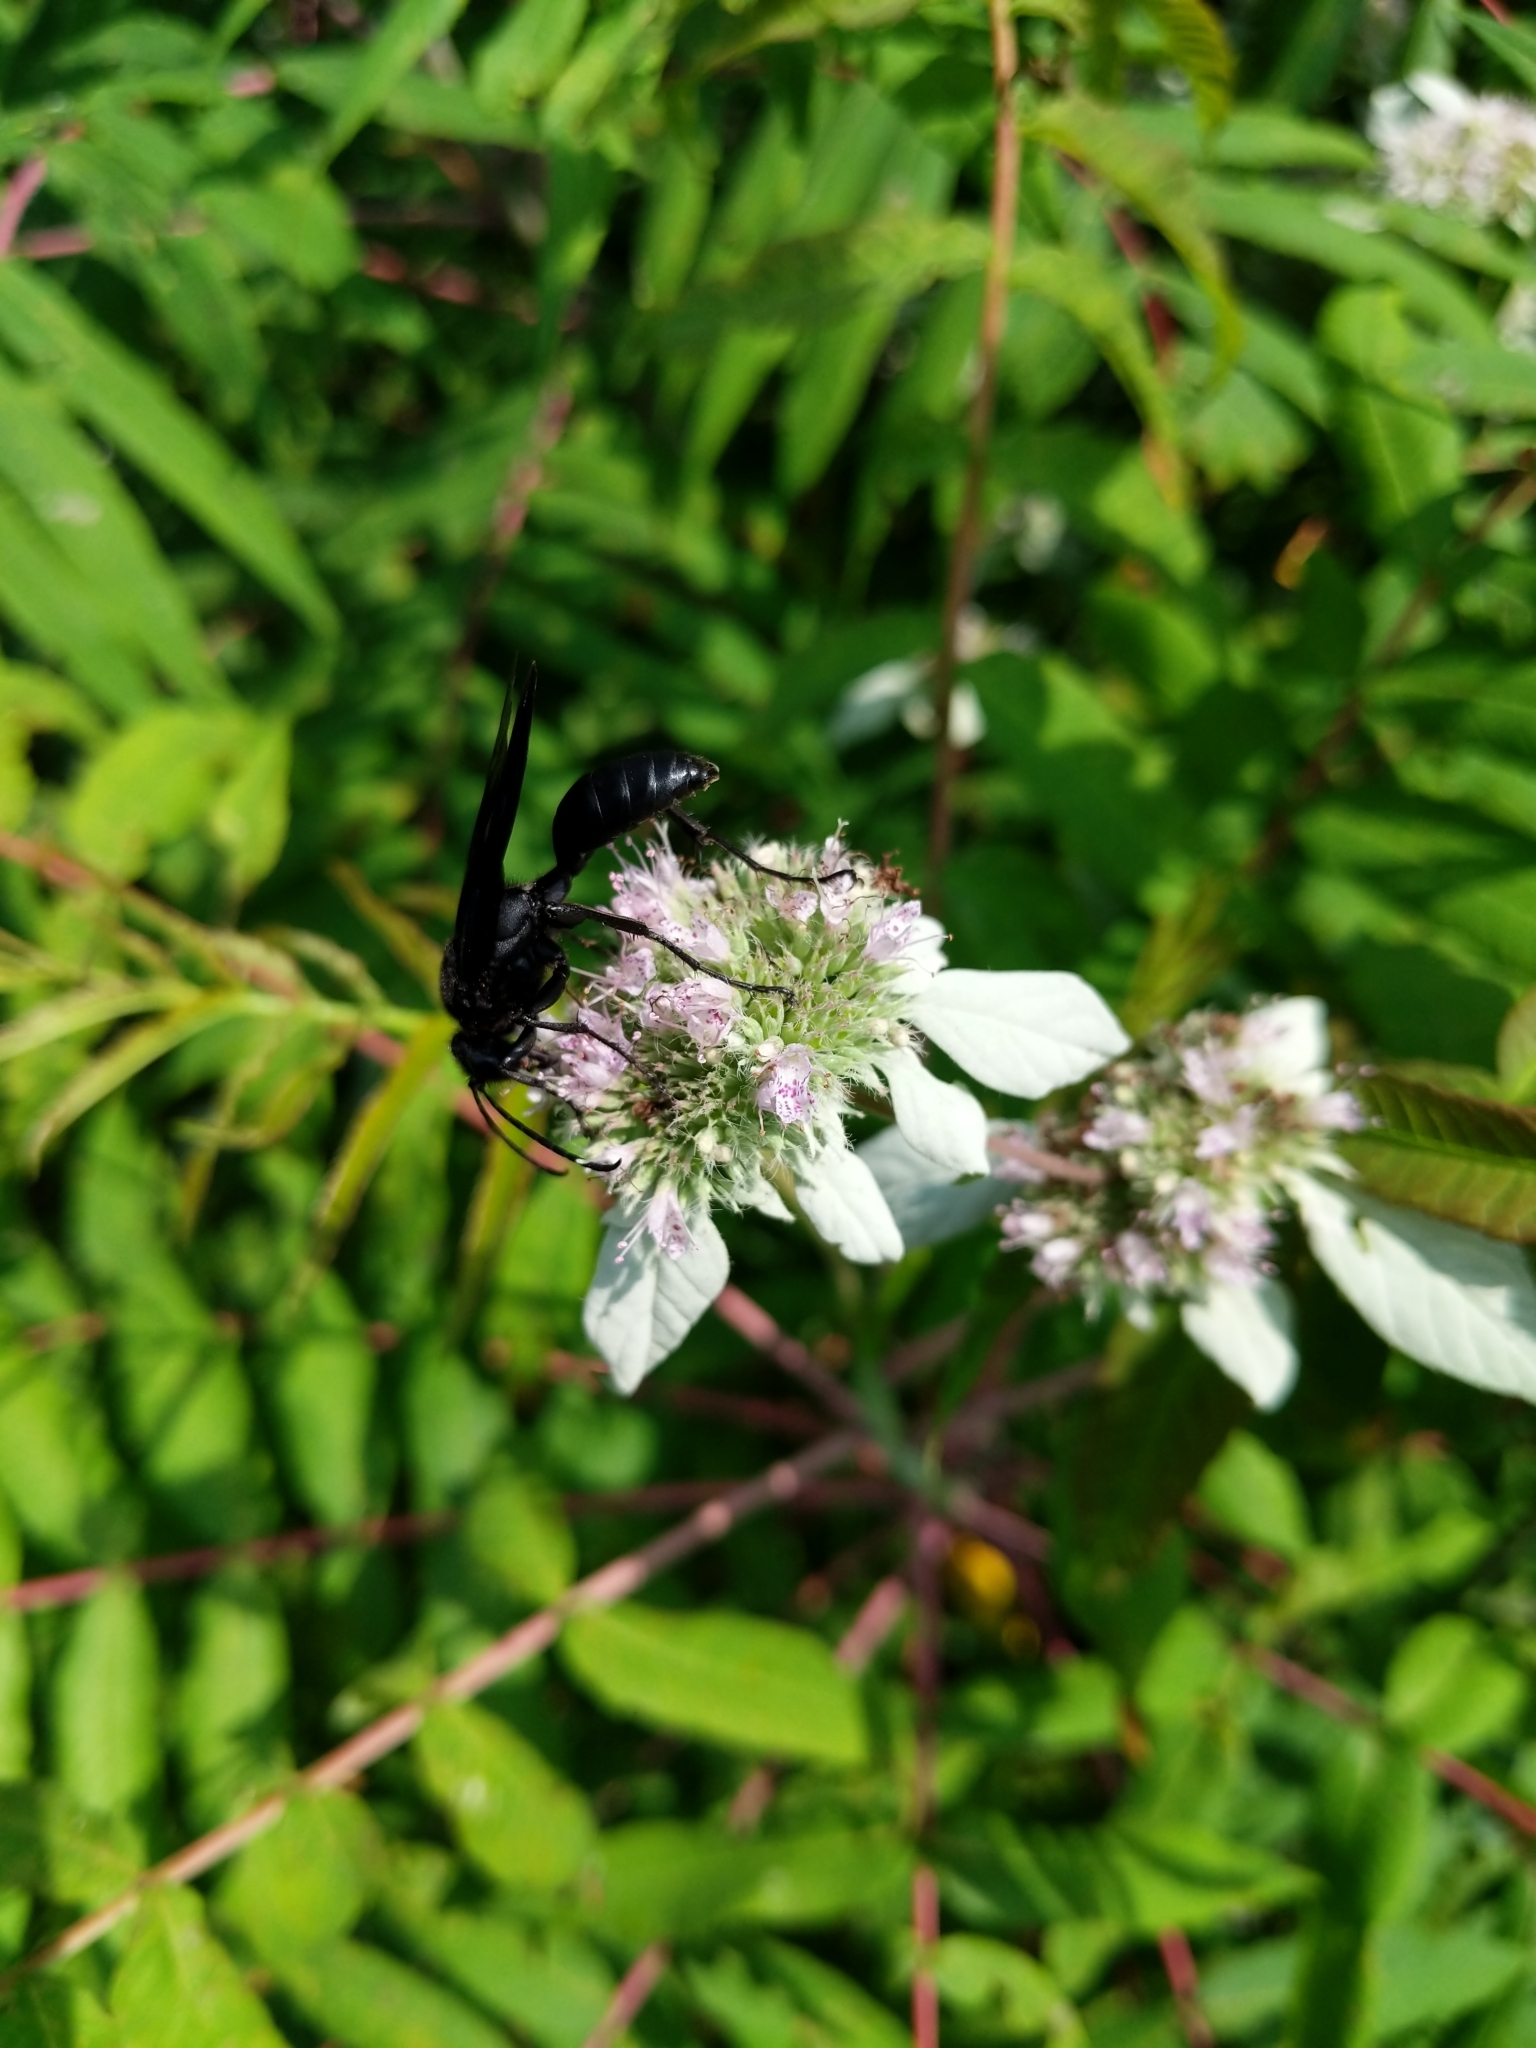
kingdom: Animalia
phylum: Arthropoda
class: Insecta
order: Hymenoptera
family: Sphecidae
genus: Sphex
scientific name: Sphex pensylvanicus
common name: Great black digger wasp
